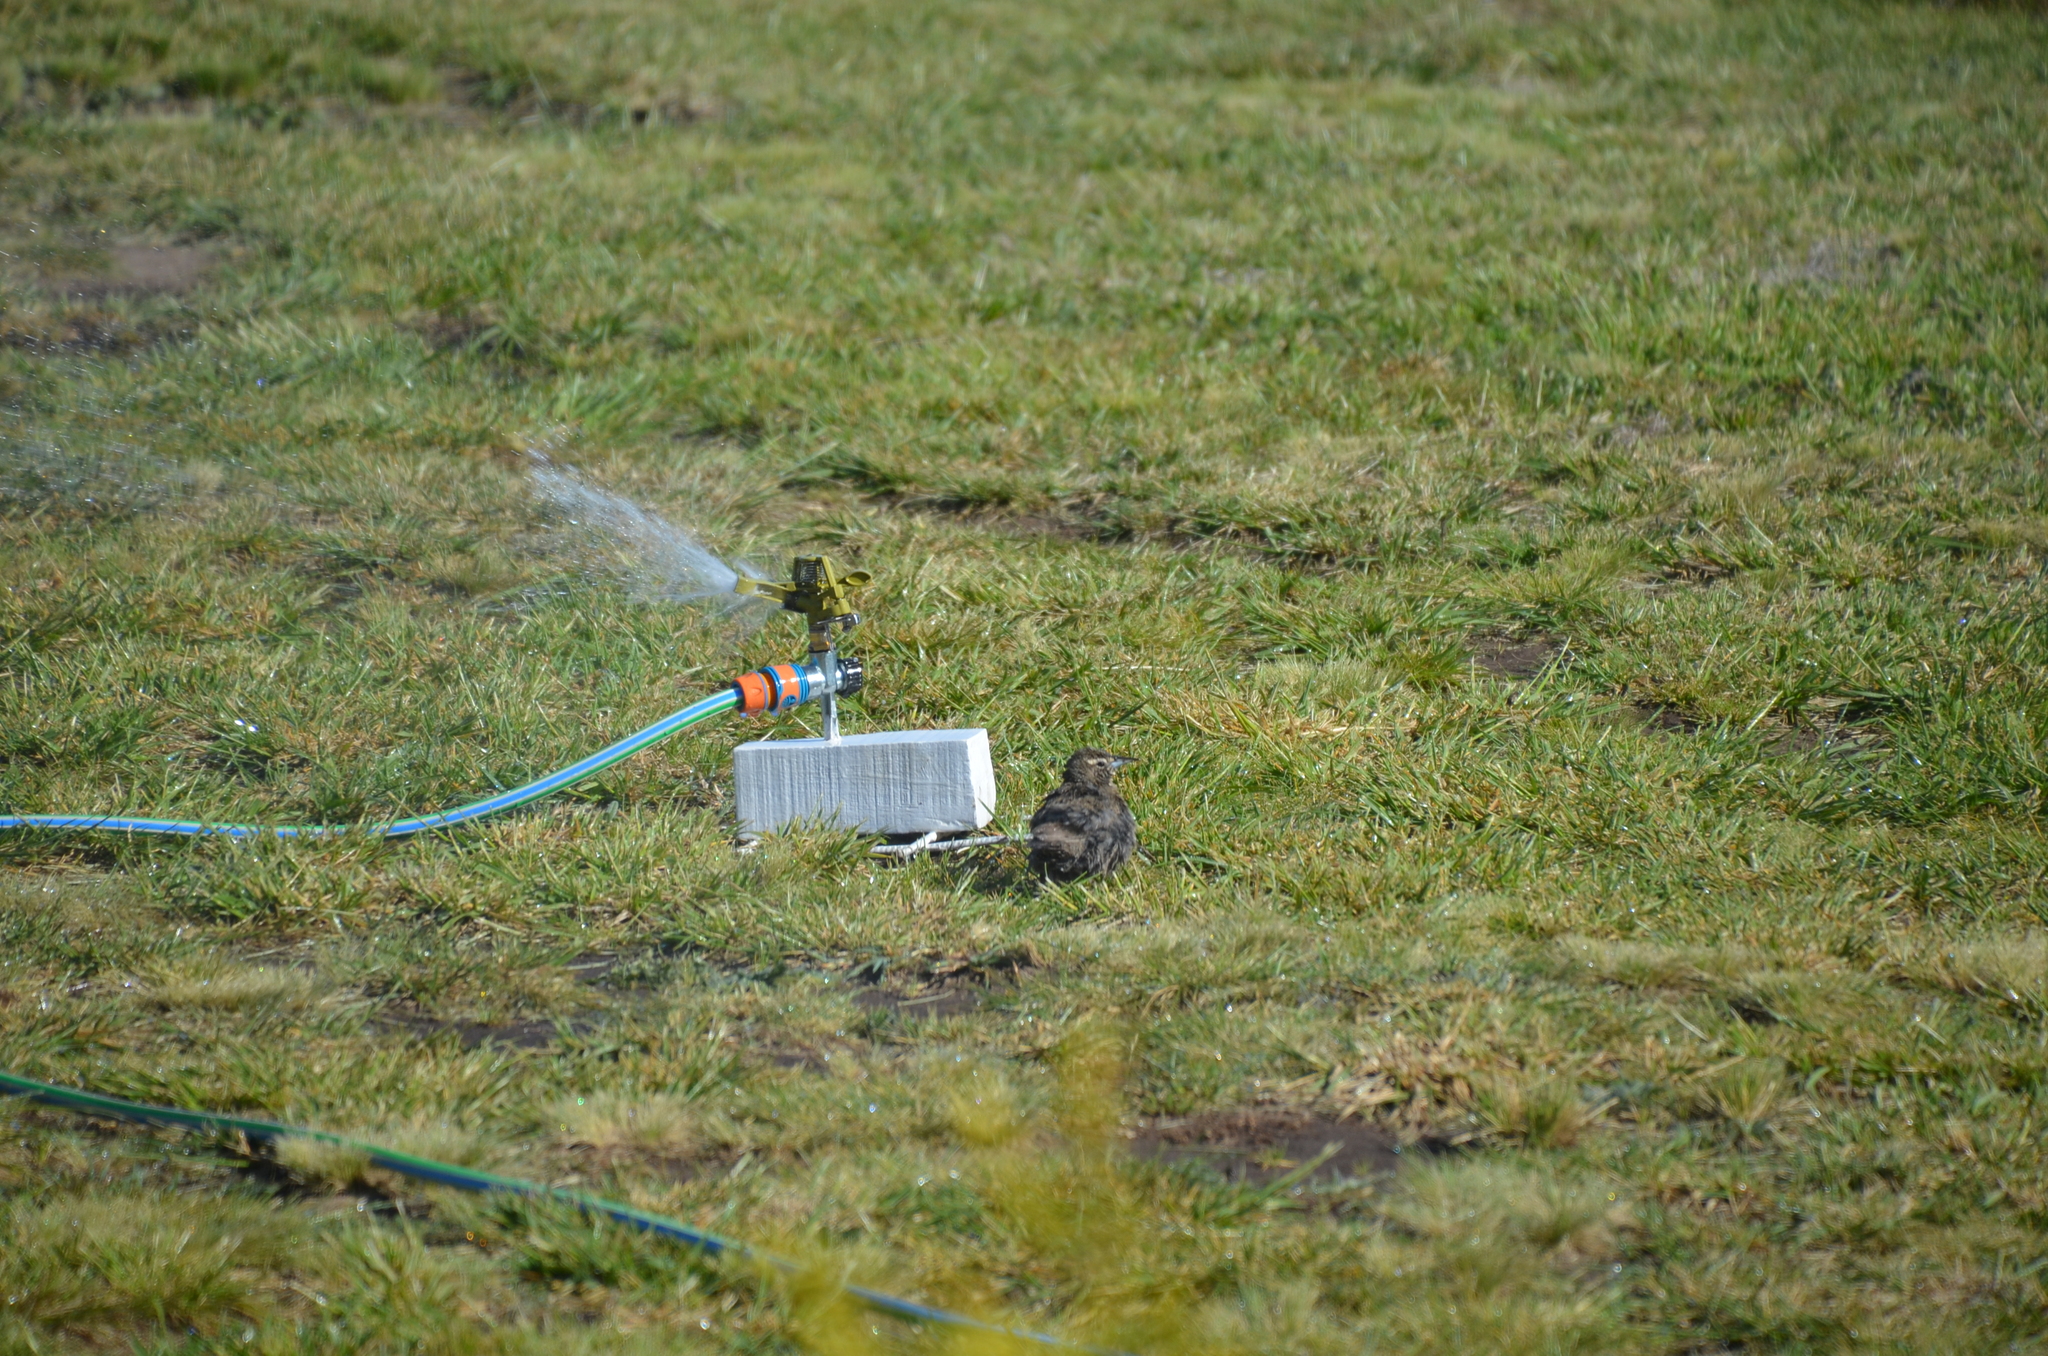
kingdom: Animalia
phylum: Chordata
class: Aves
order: Passeriformes
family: Icteridae
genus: Sturnella
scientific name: Sturnella loyca
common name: Long-tailed meadowlark
